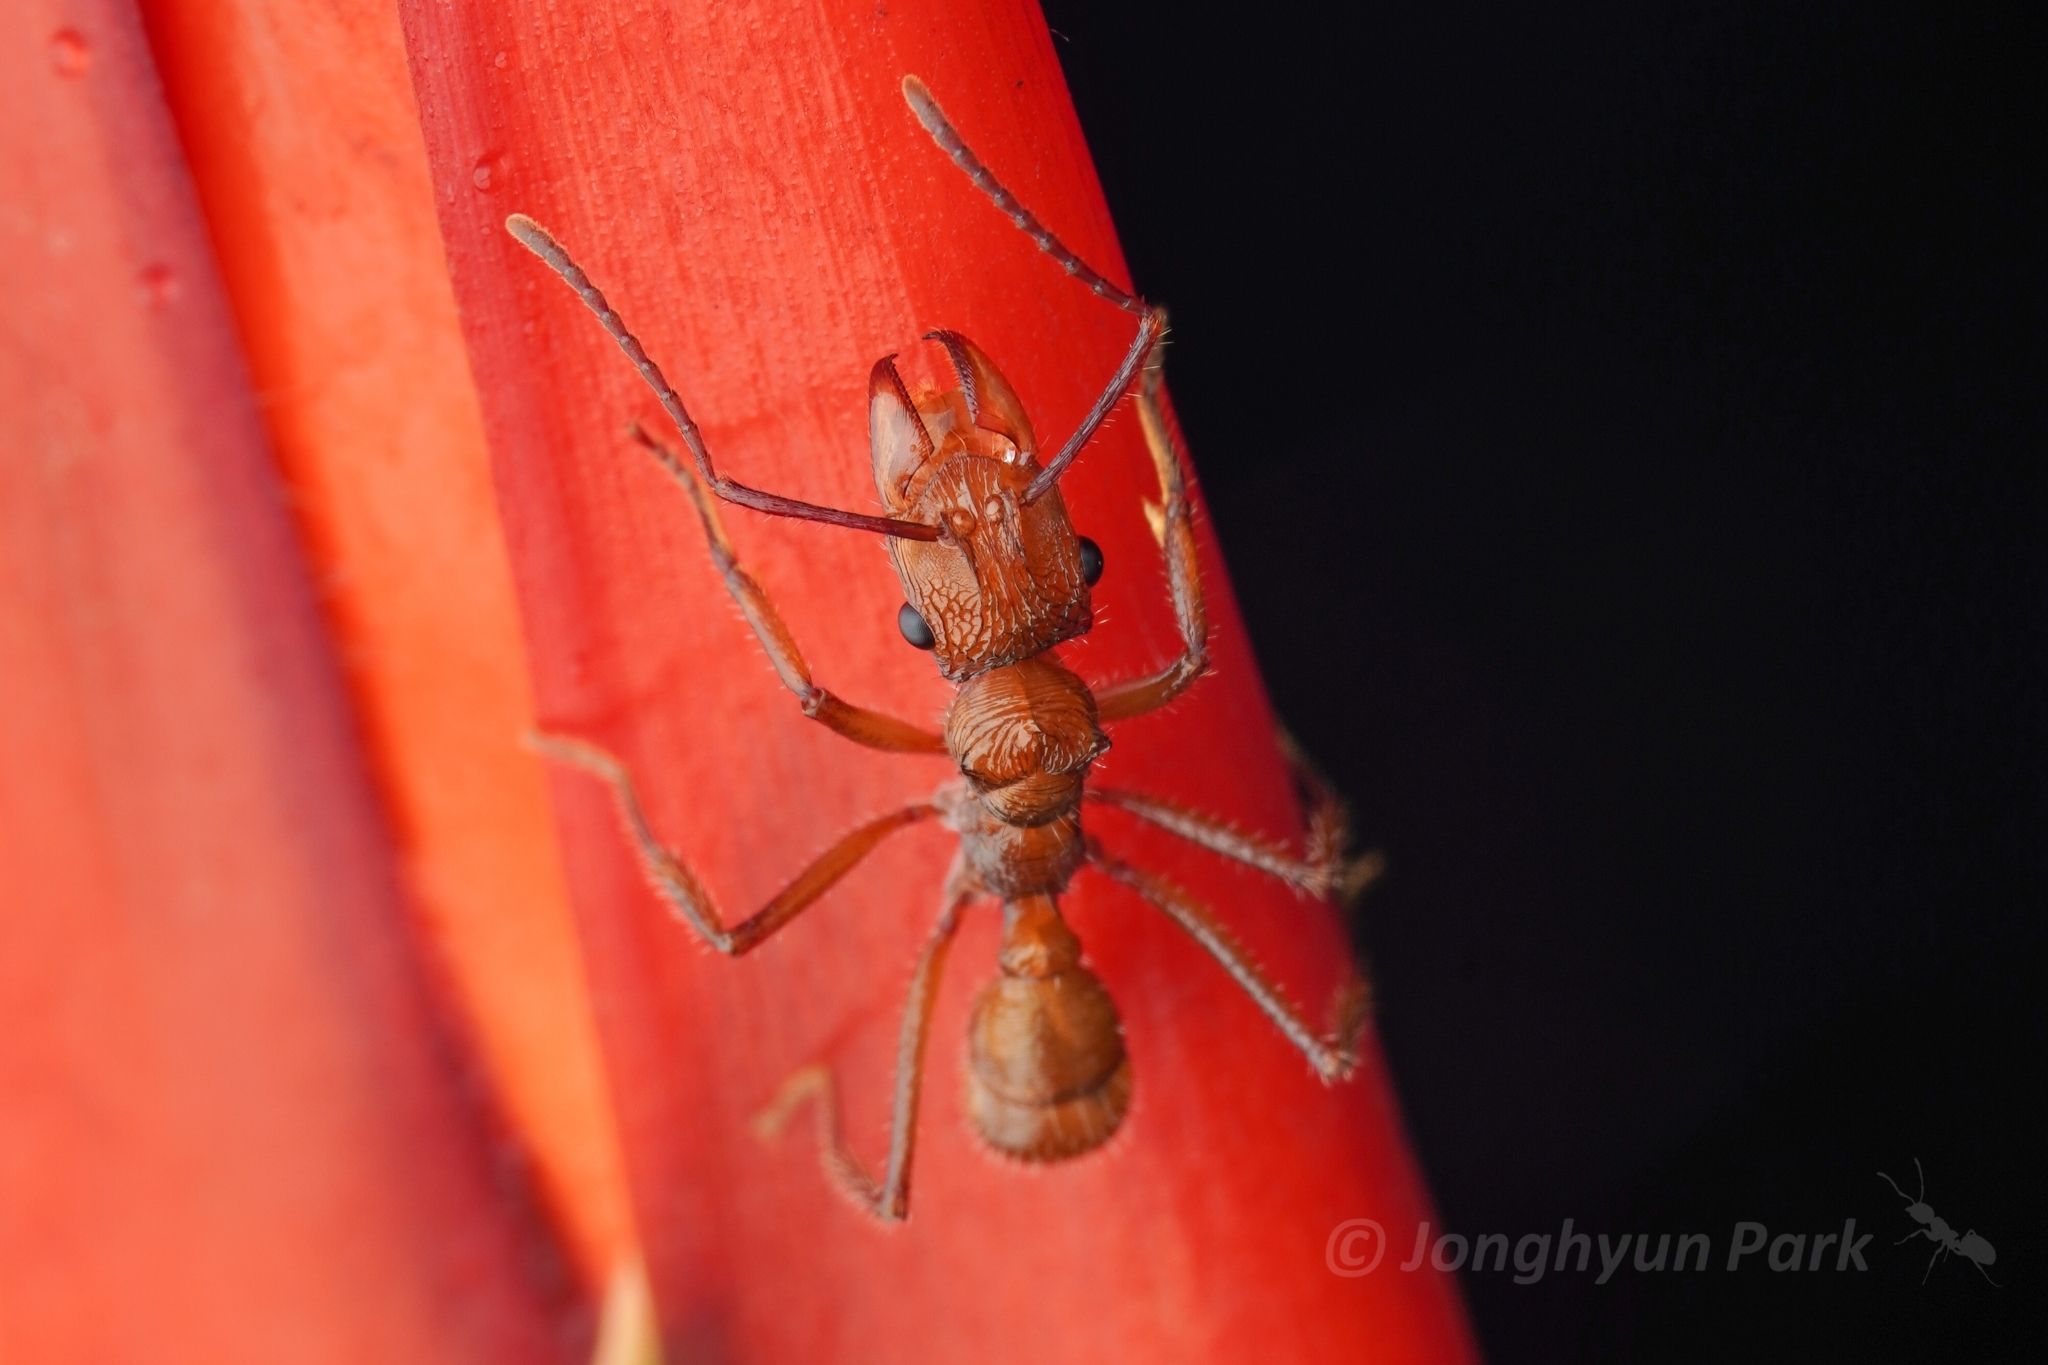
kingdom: Animalia
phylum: Arthropoda
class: Insecta
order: Hymenoptera
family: Formicidae
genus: Ectatomma
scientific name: Ectatomma tuberculatum
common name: Ant
